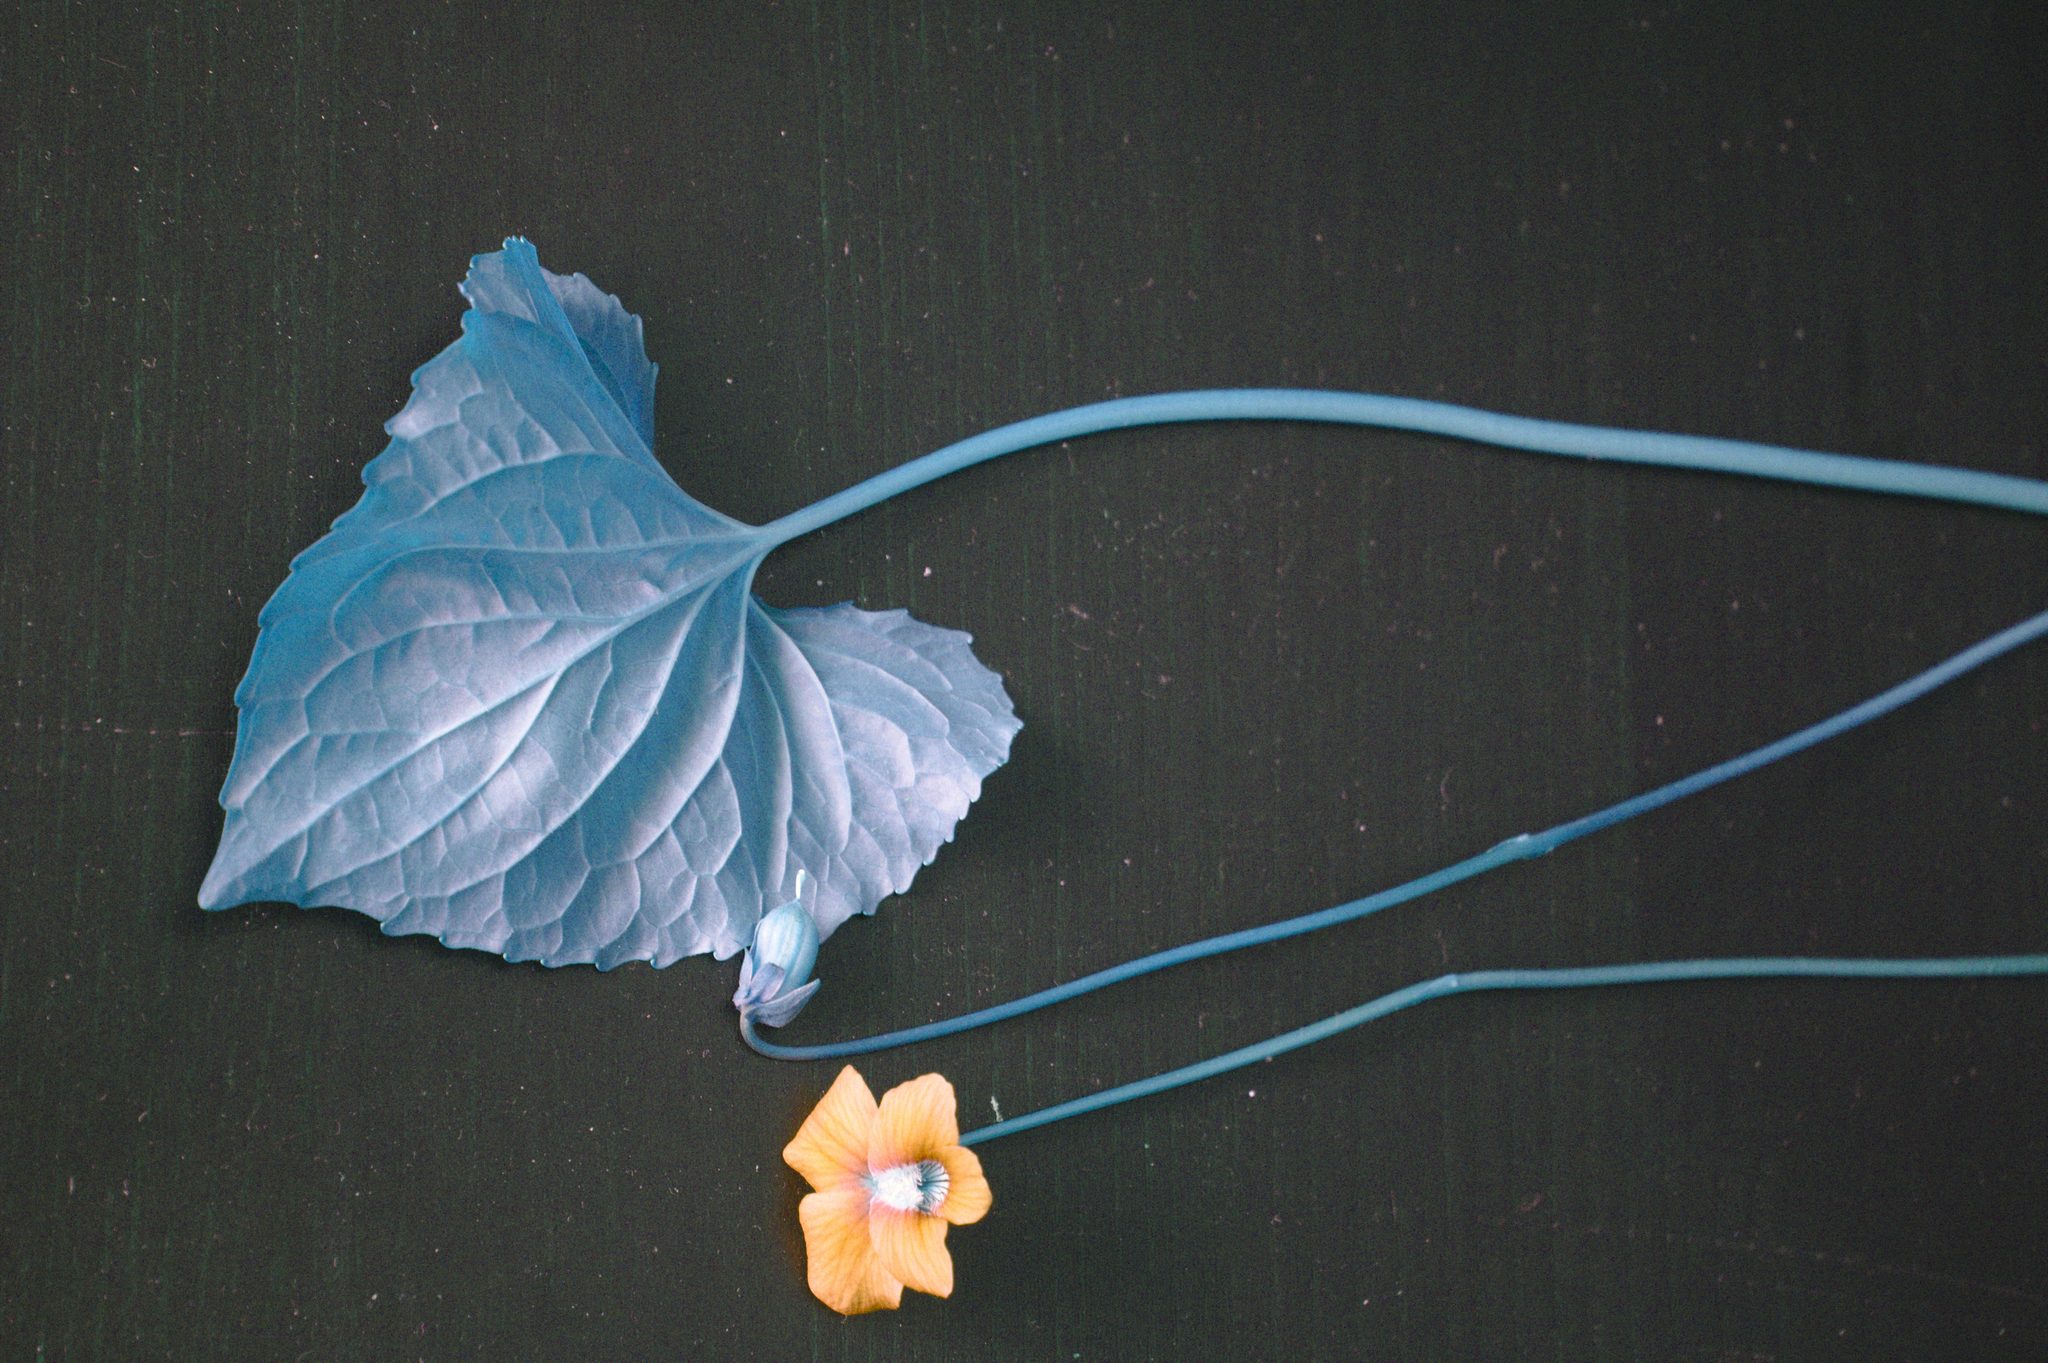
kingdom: Plantae
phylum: Tracheophyta
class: Magnoliopsida
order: Malpighiales
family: Violaceae
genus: Viola
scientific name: Viola bissellii
